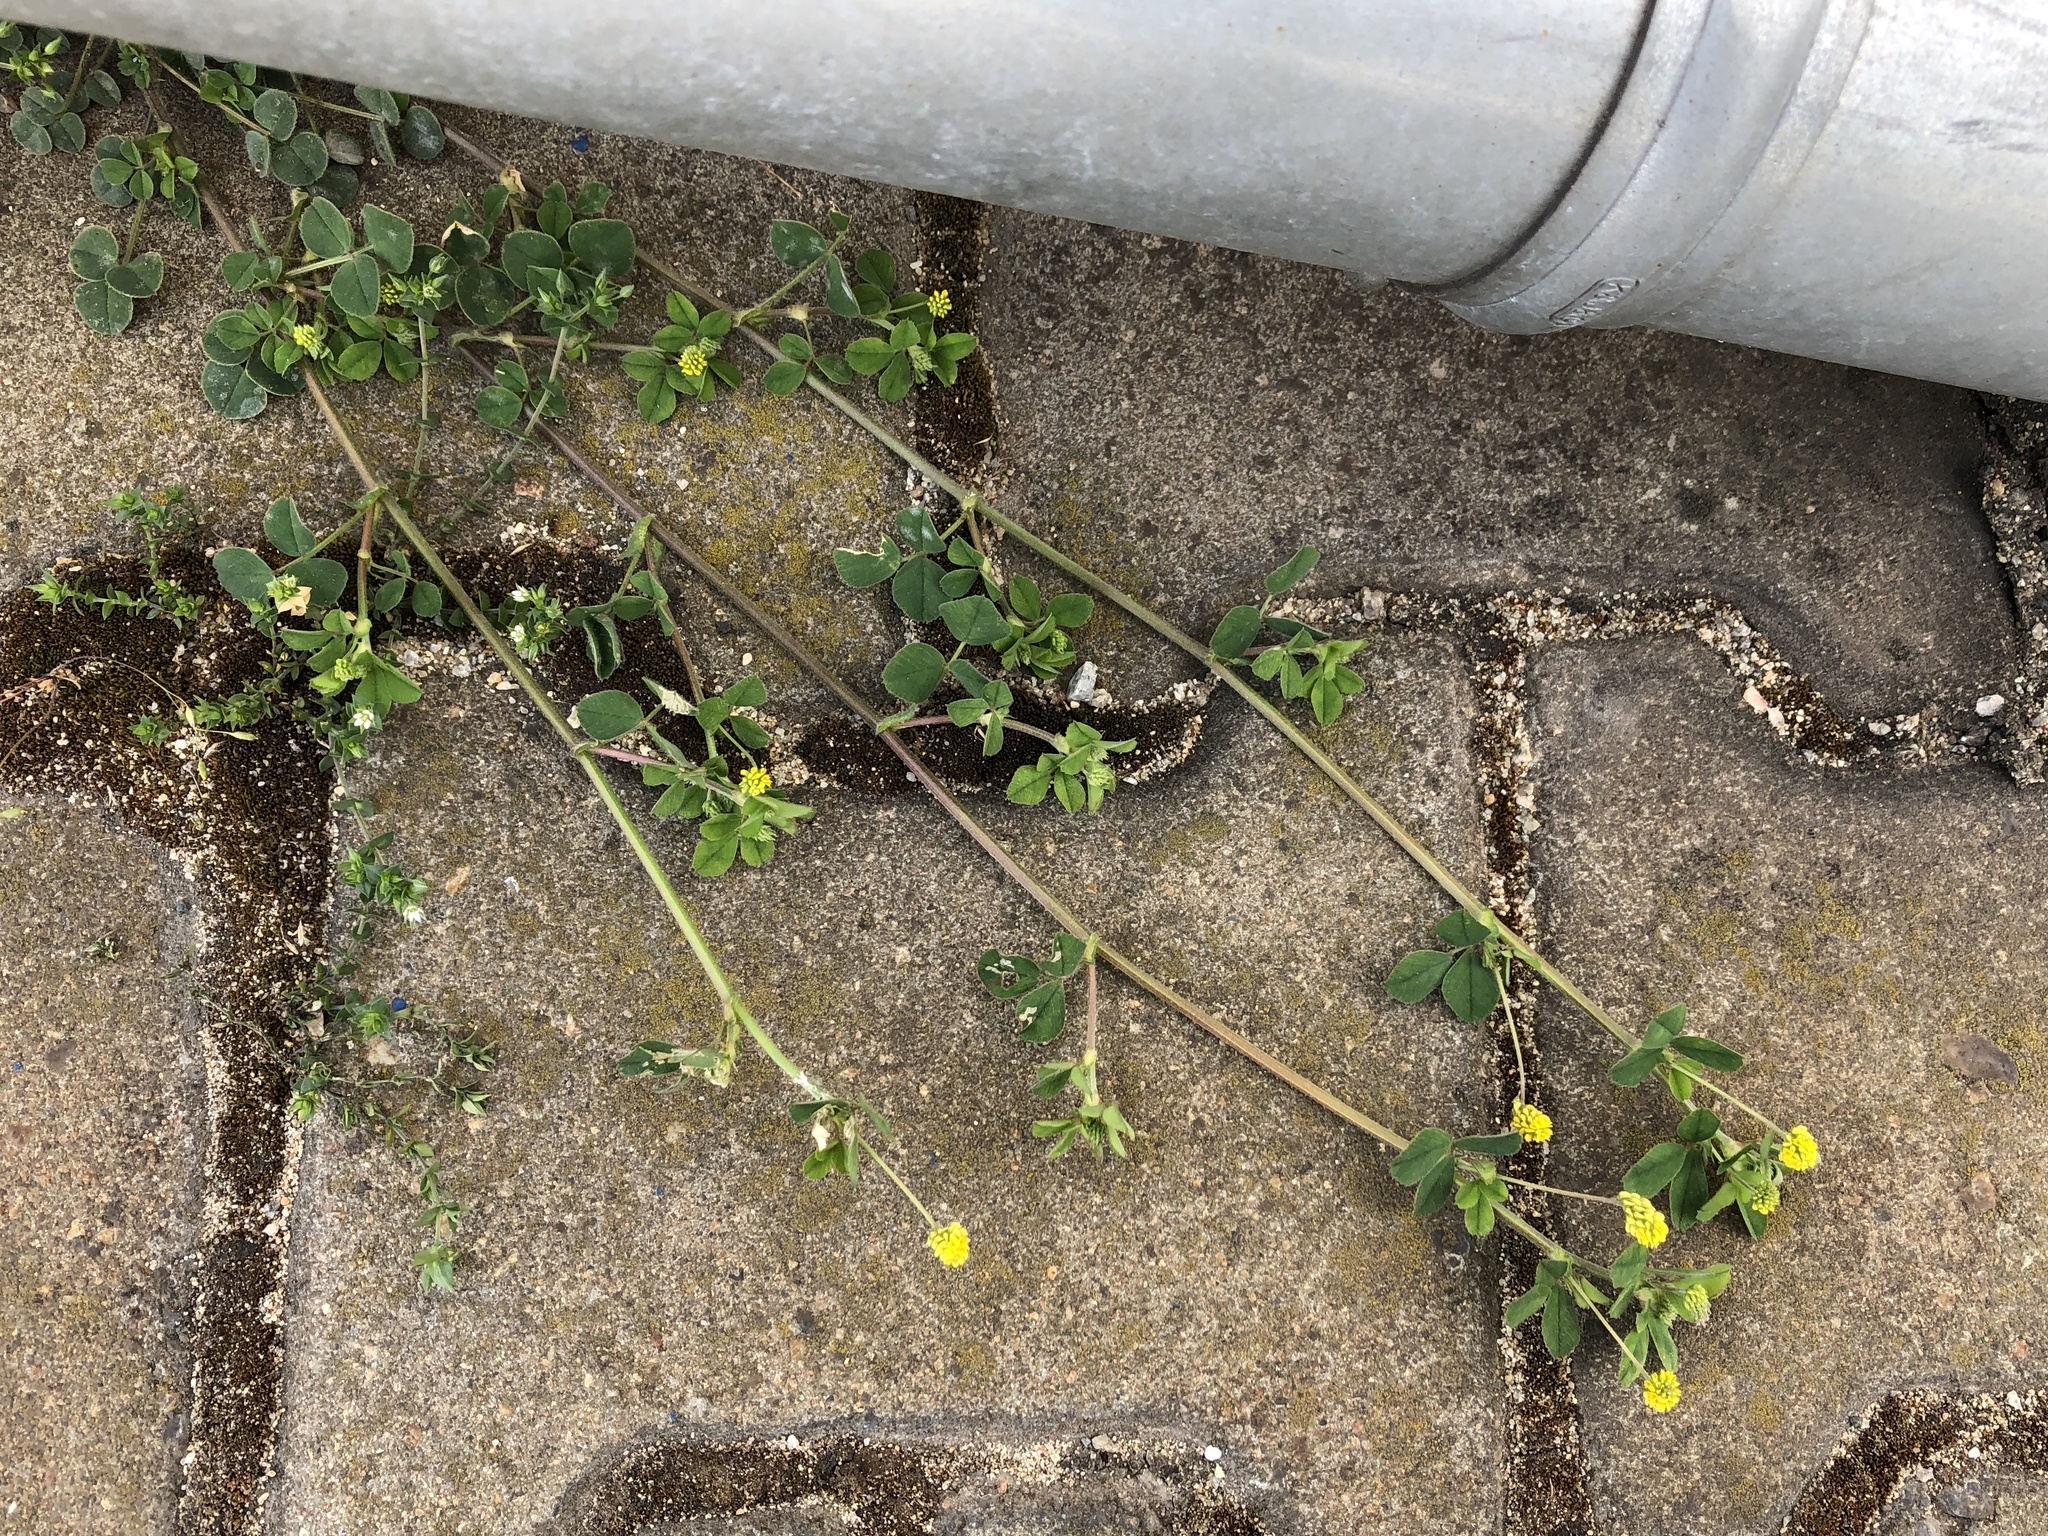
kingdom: Plantae
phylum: Tracheophyta
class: Magnoliopsida
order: Fabales
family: Fabaceae
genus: Medicago
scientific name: Medicago lupulina
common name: Black medick
